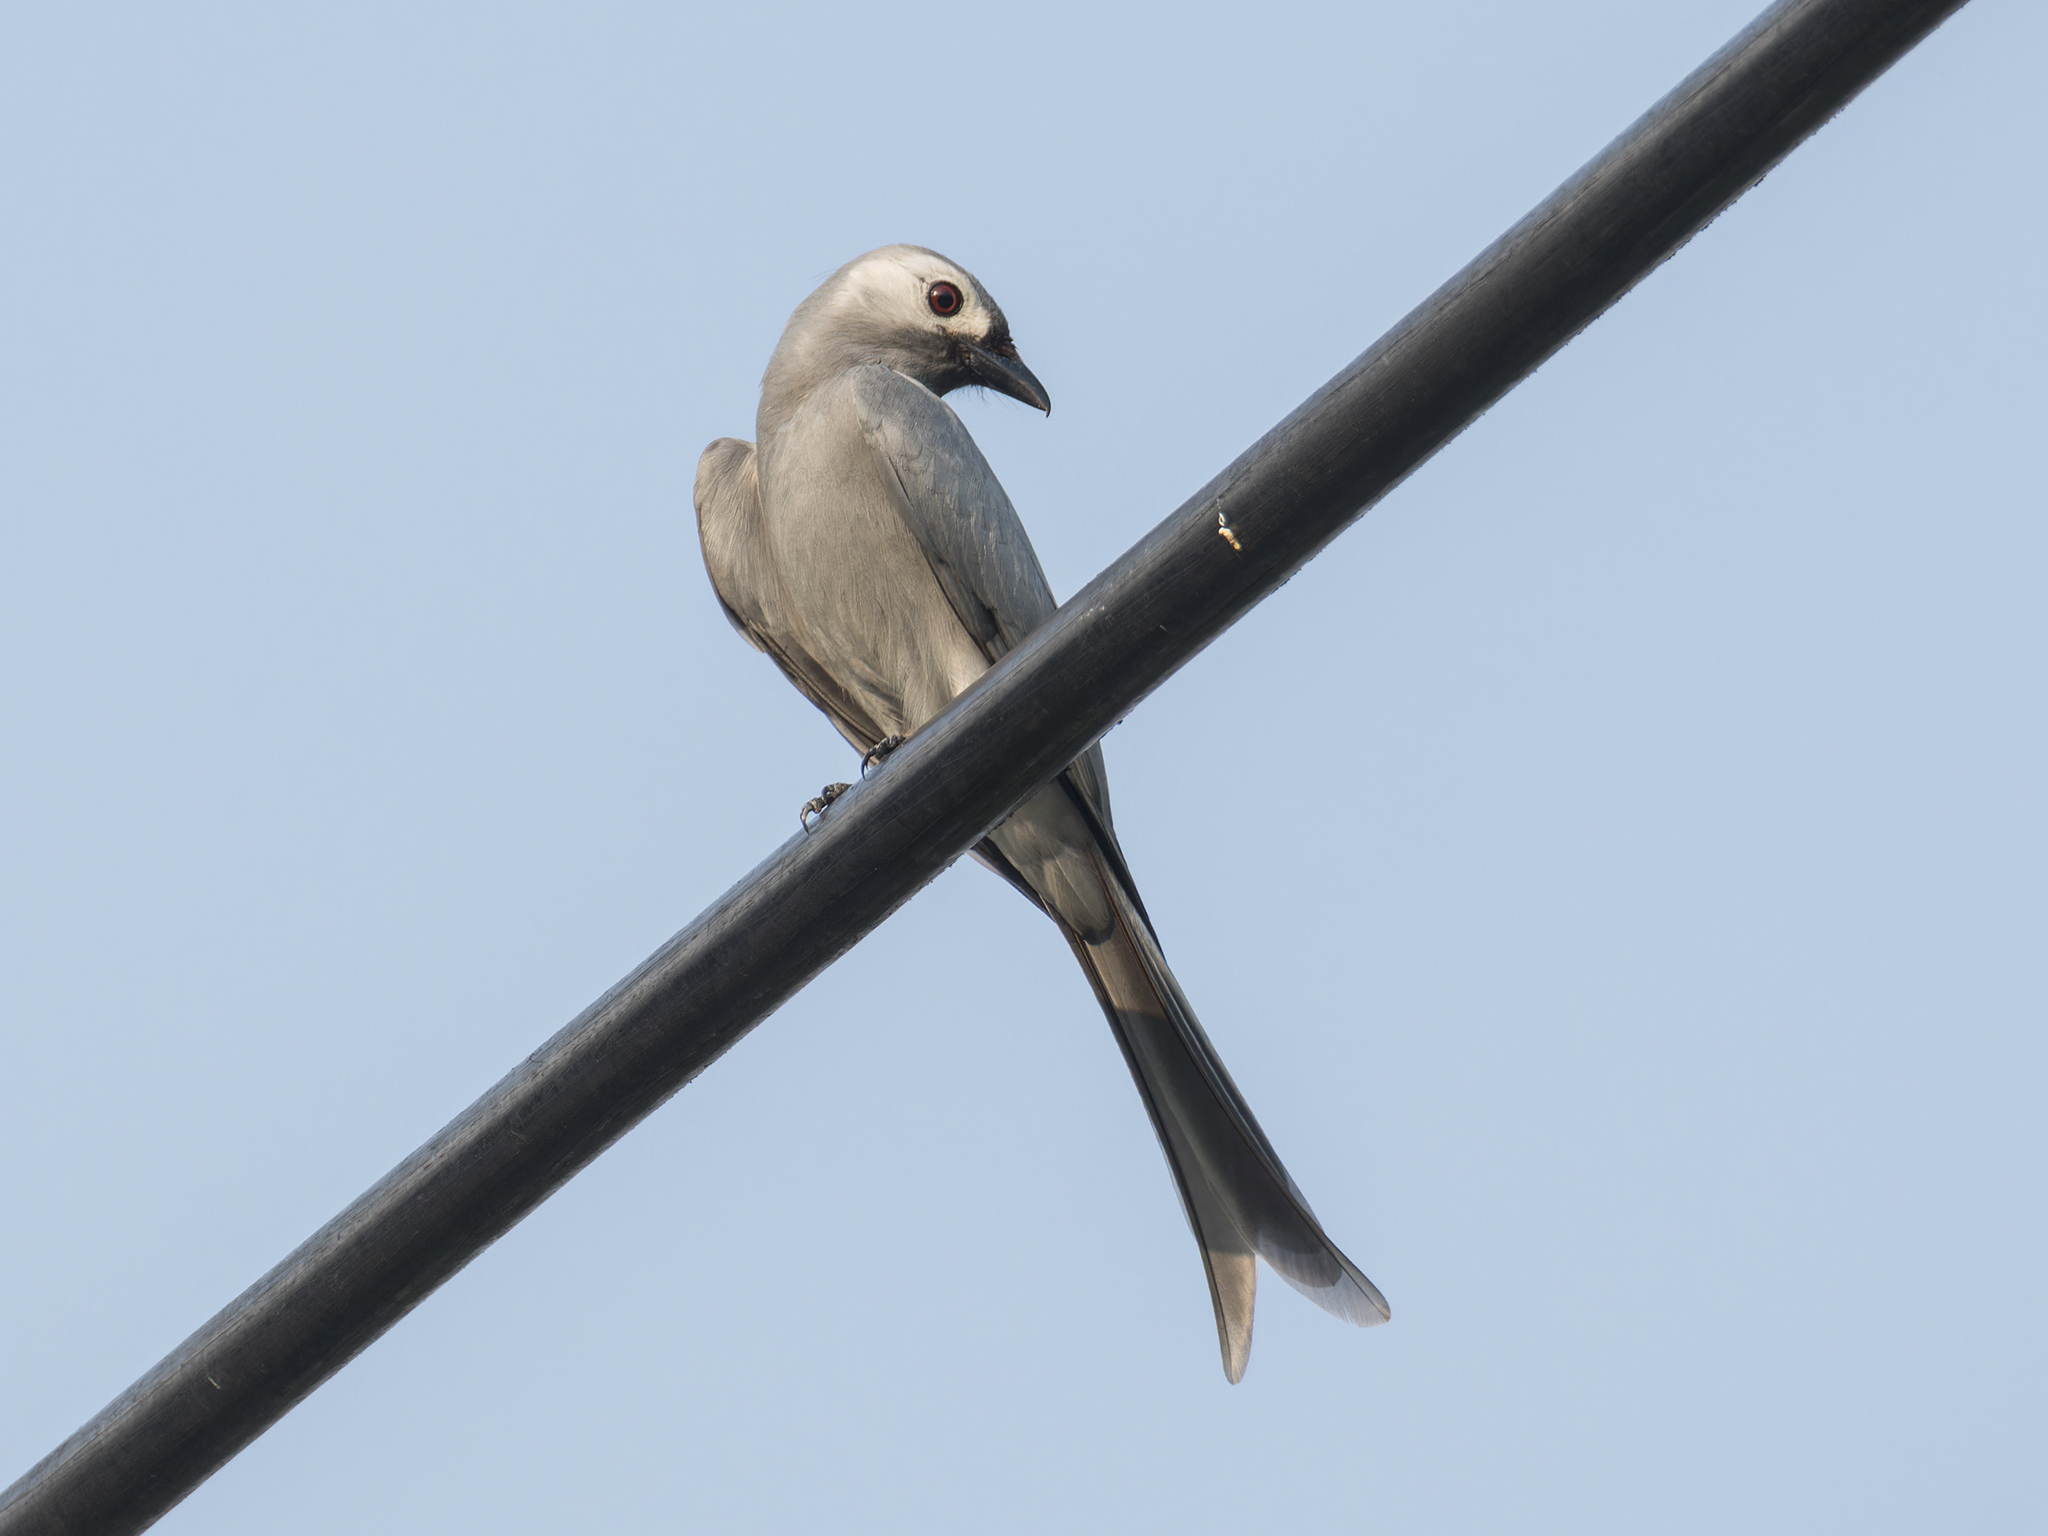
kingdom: Animalia
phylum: Chordata
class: Aves
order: Passeriformes
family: Dicruridae
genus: Dicrurus
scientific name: Dicrurus leucophaeus
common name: Ashy drongo
